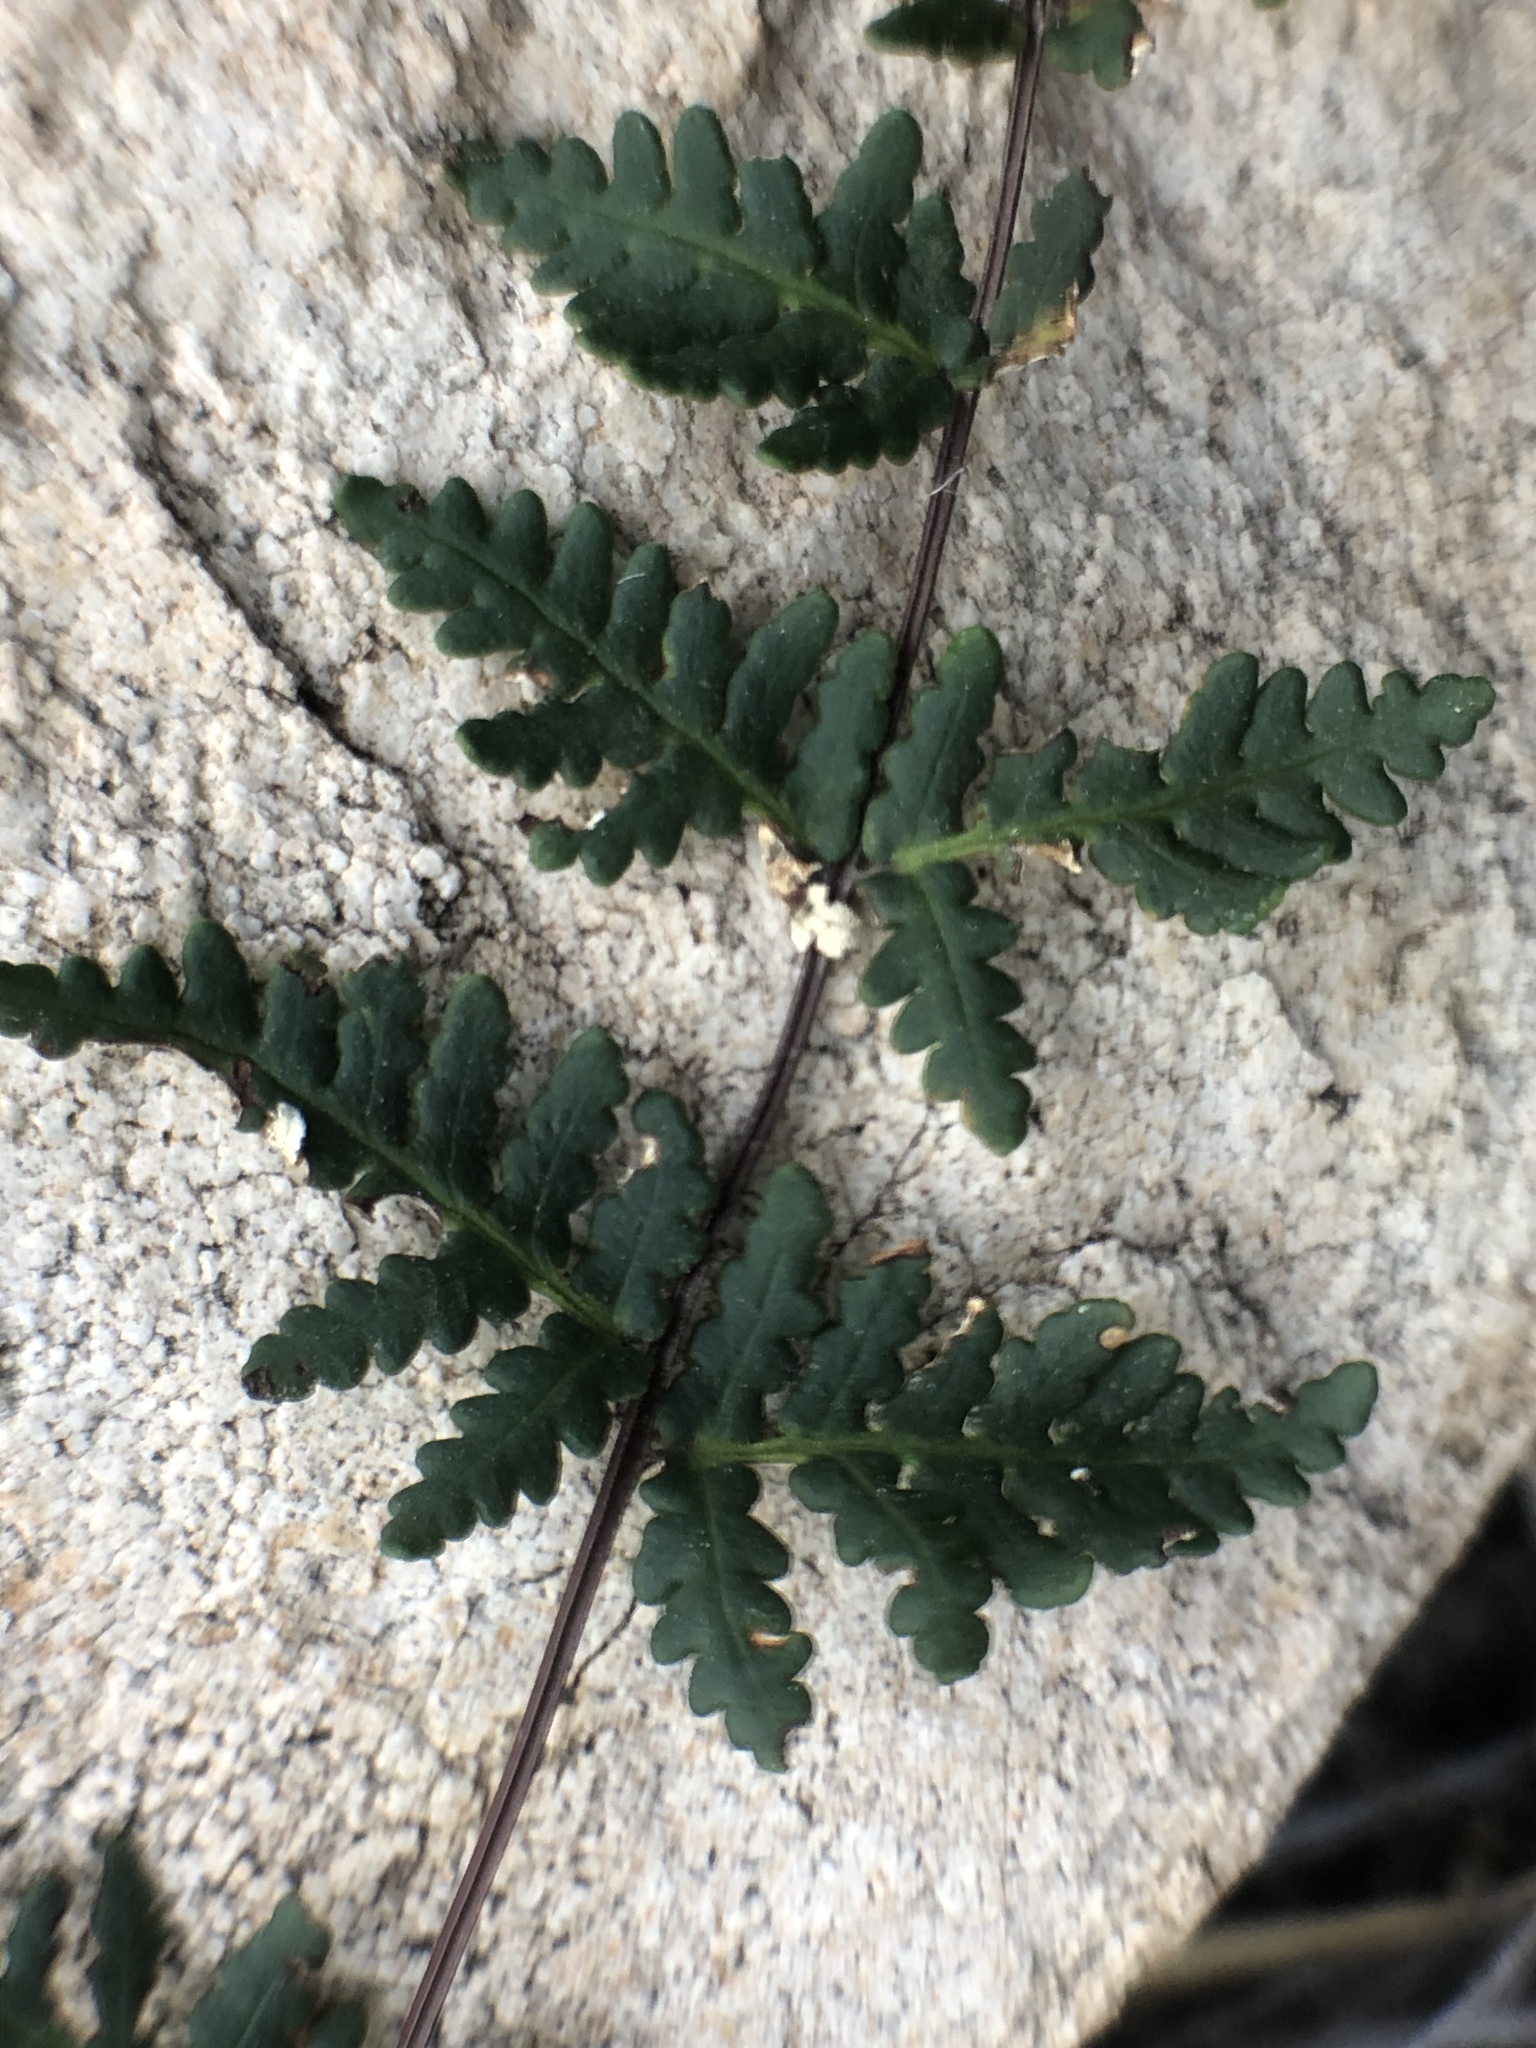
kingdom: Plantae
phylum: Tracheophyta
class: Polypodiopsida
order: Polypodiales
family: Pteridaceae
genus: Notholaena
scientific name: Notholaena lemmonii
